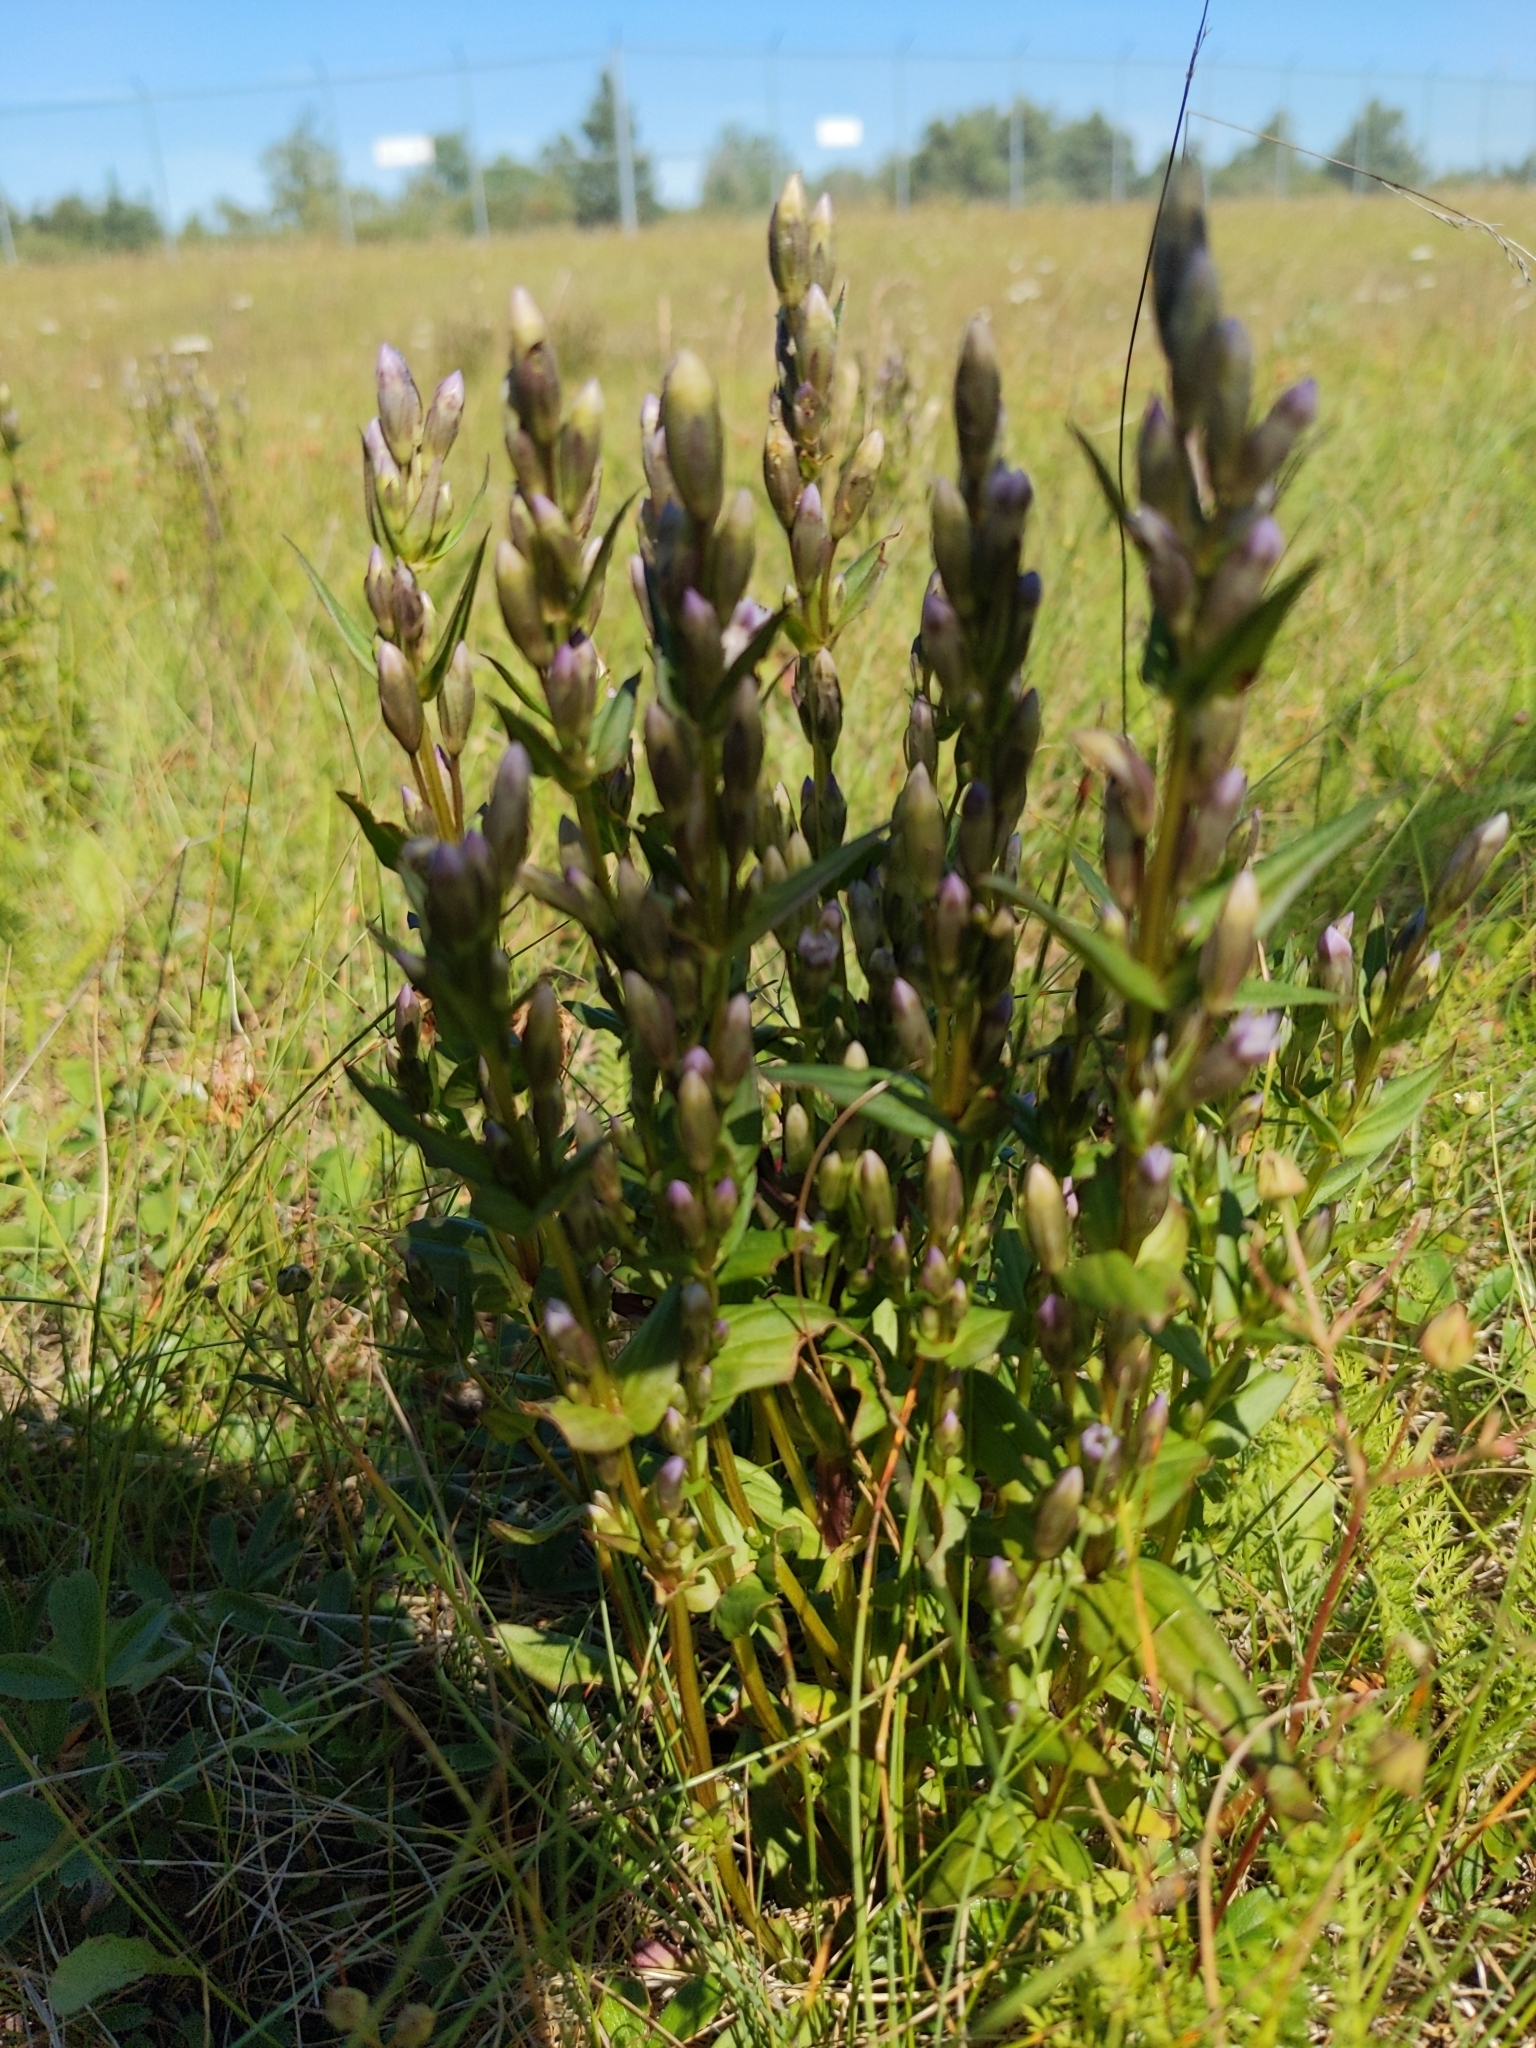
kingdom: Plantae
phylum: Tracheophyta
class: Magnoliopsida
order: Gentianales
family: Gentianaceae
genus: Gentianella
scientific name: Gentianella amarella
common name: Autumn gentian
